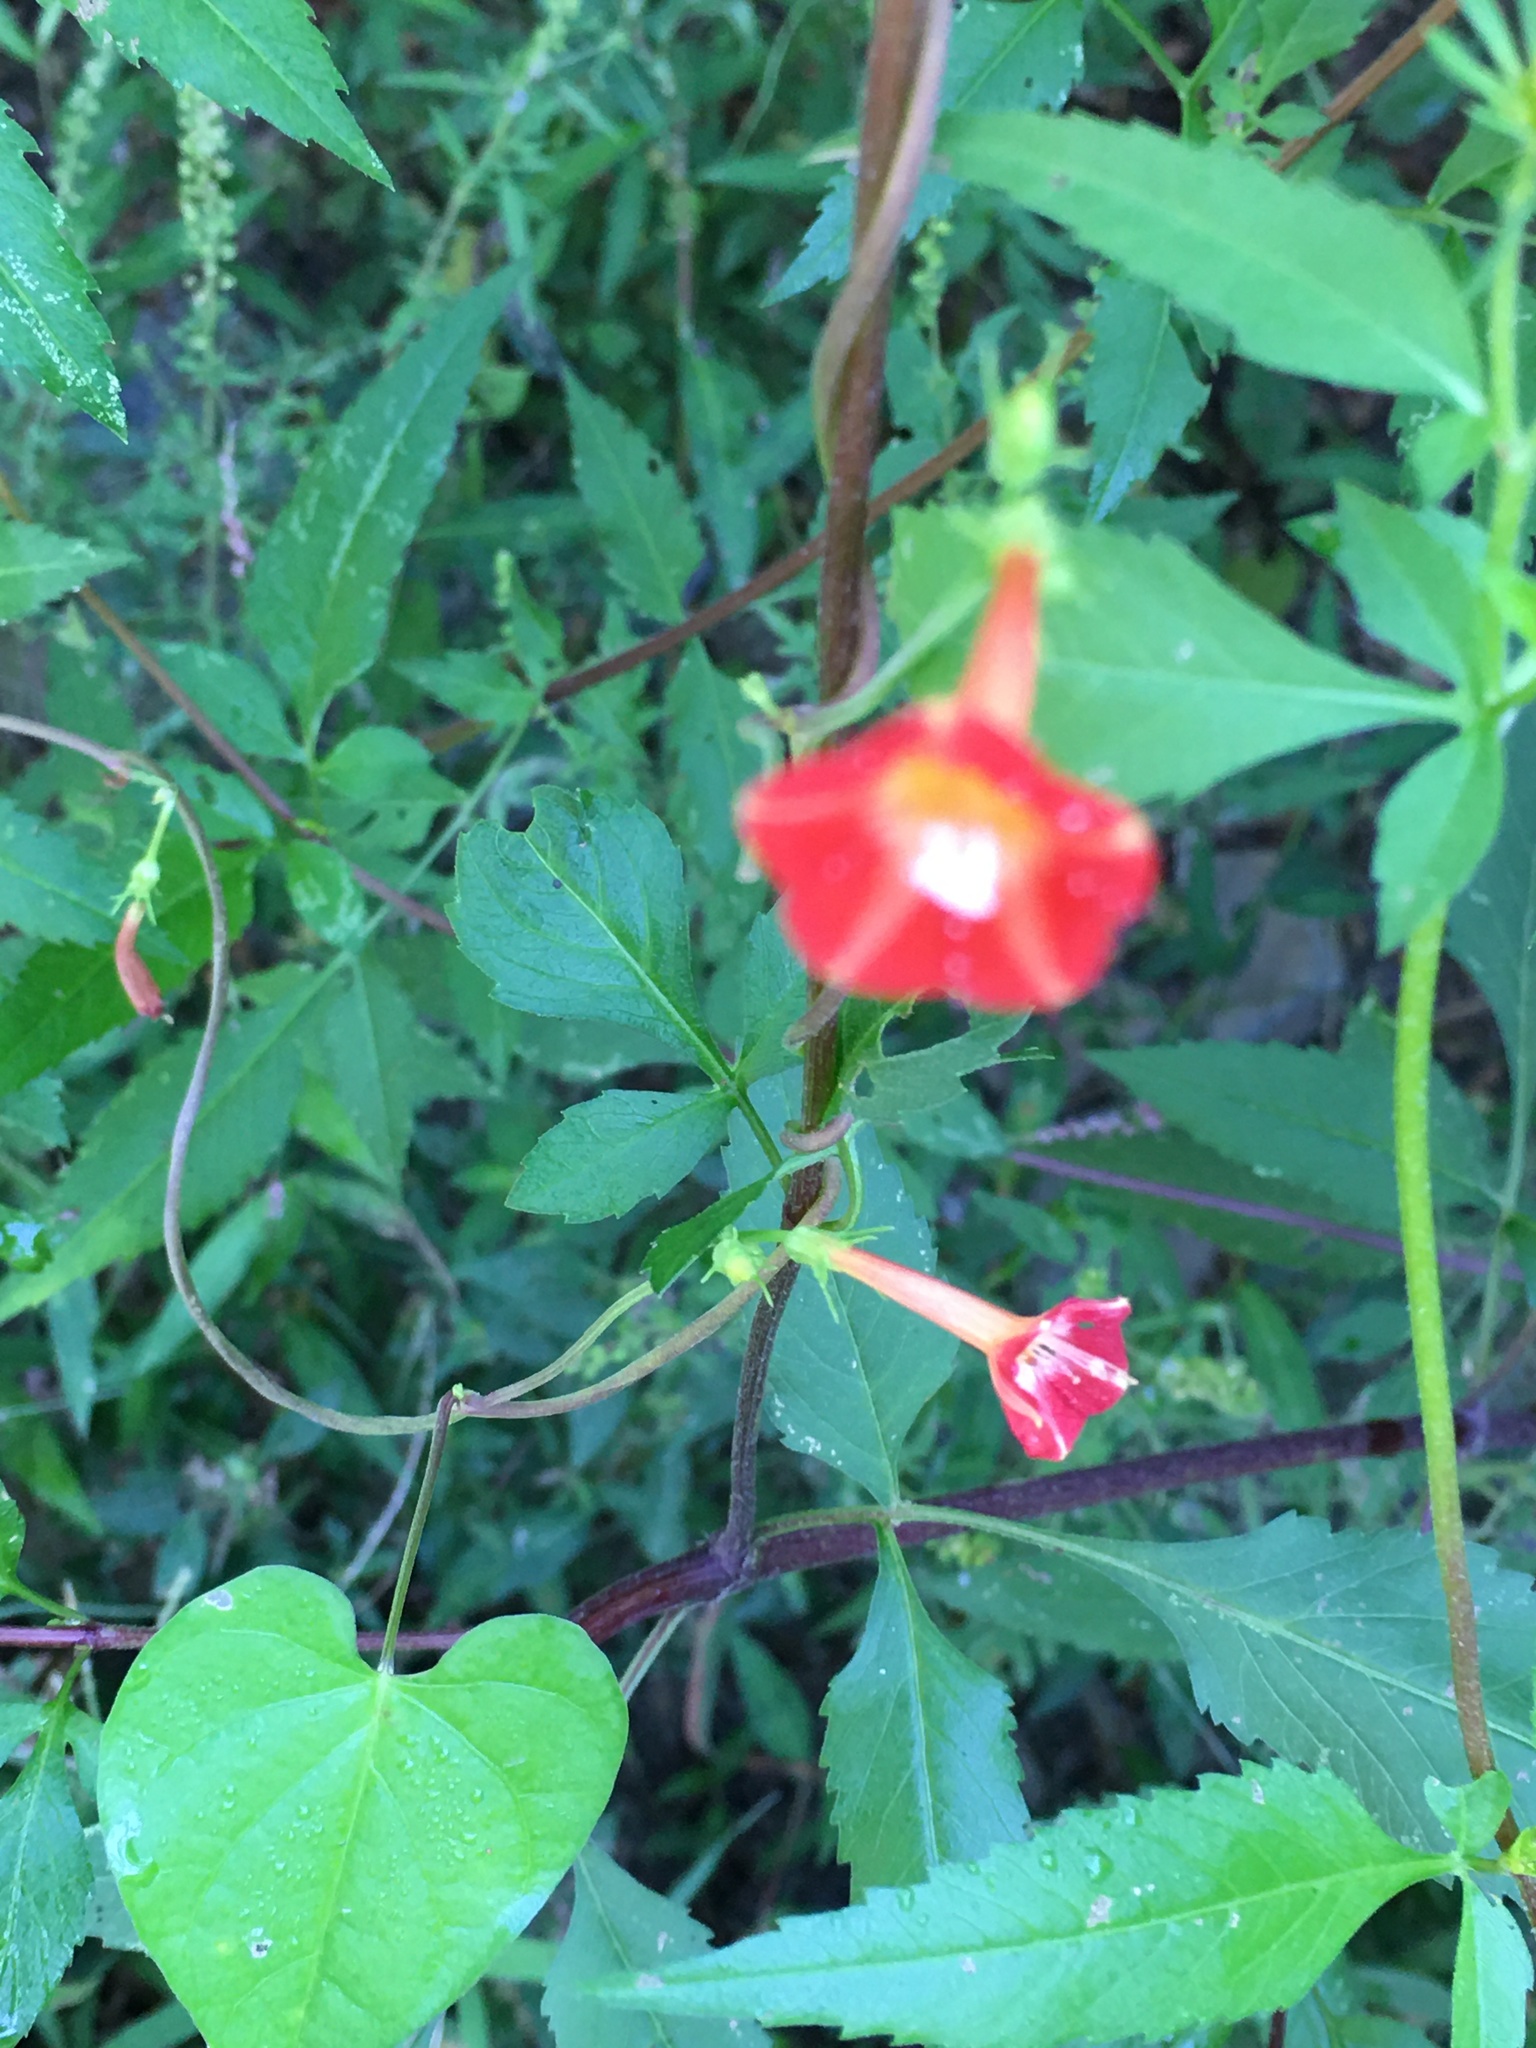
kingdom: Plantae
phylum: Tracheophyta
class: Magnoliopsida
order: Solanales
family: Convolvulaceae
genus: Ipomoea
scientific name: Ipomoea coccinea
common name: Red morning-glory
